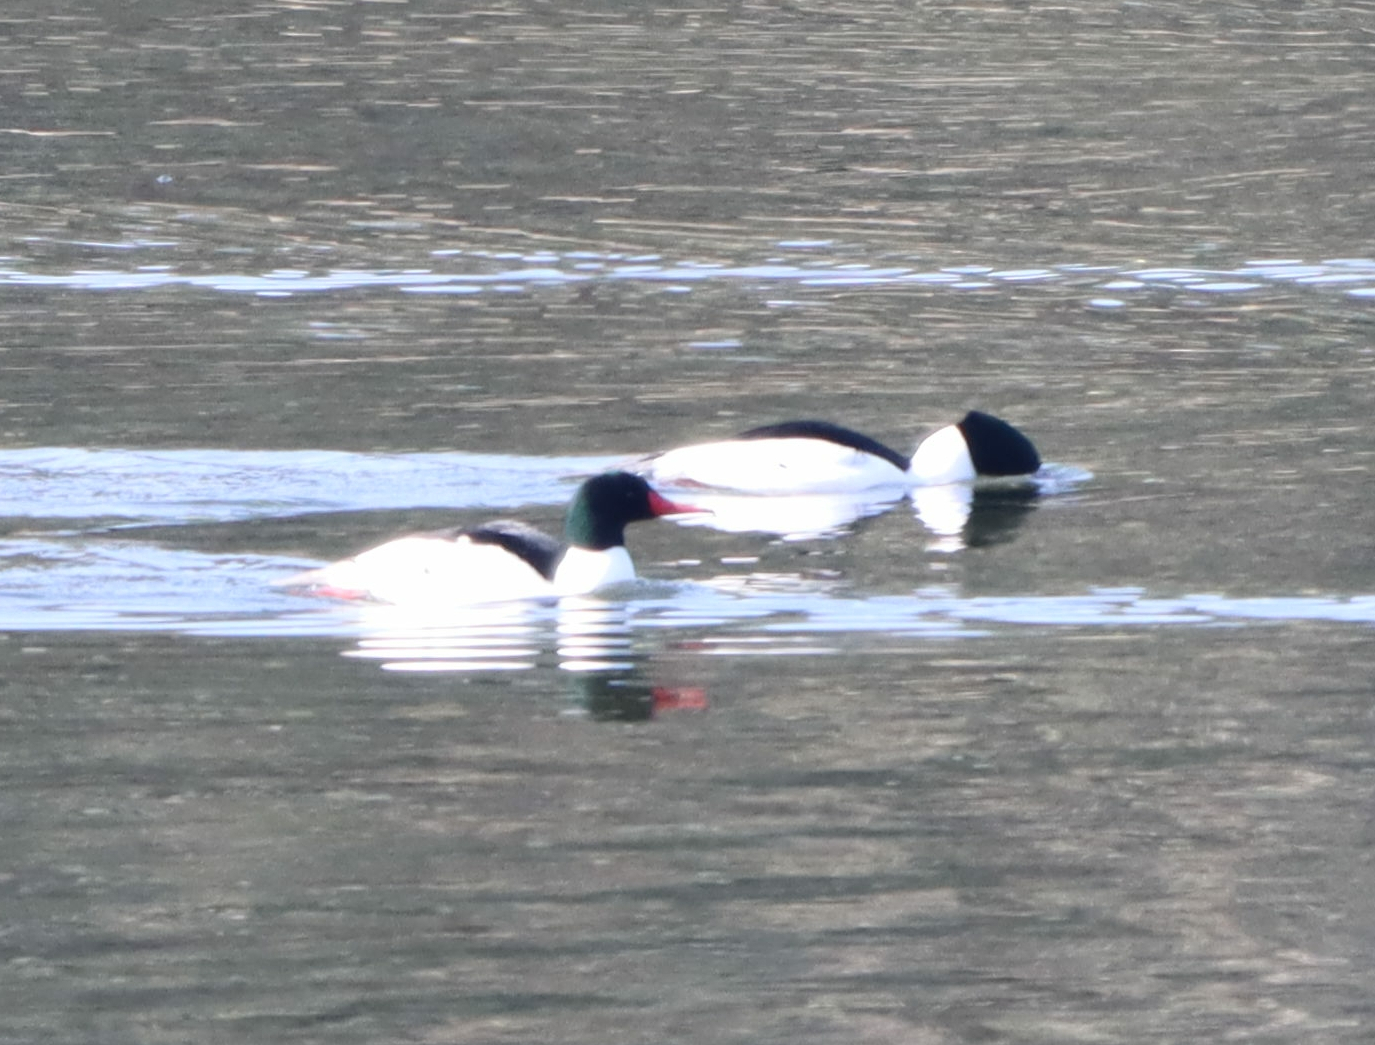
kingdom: Animalia
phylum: Chordata
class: Aves
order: Anseriformes
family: Anatidae
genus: Mergus
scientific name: Mergus merganser
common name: Common merganser
